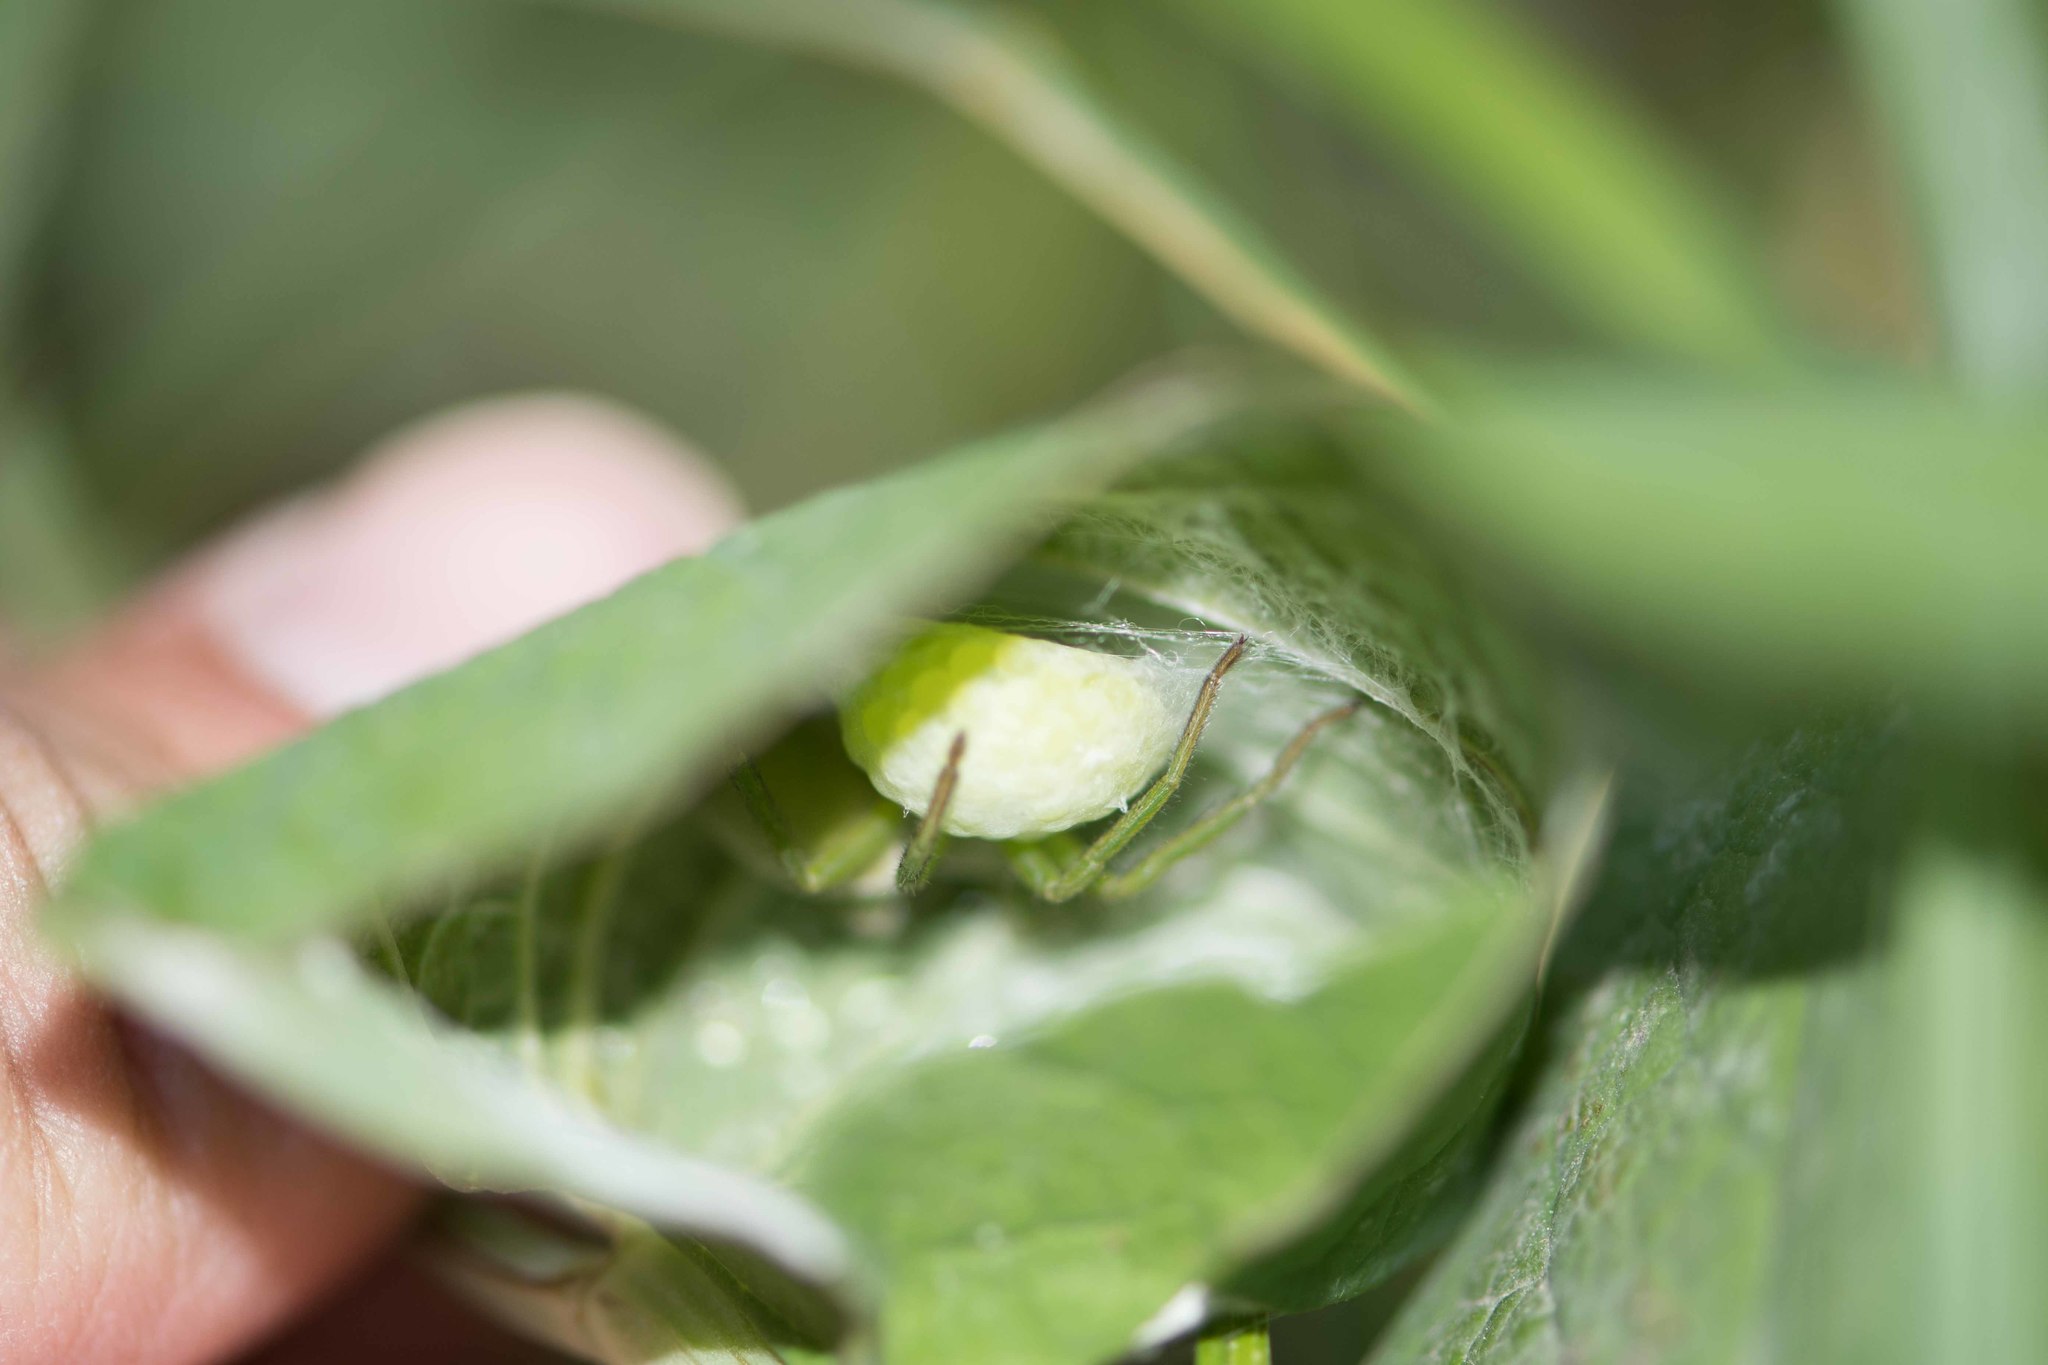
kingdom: Animalia
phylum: Arthropoda
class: Arachnida
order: Araneae
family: Sparassidae
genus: Micrommata
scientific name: Micrommata ligurina
